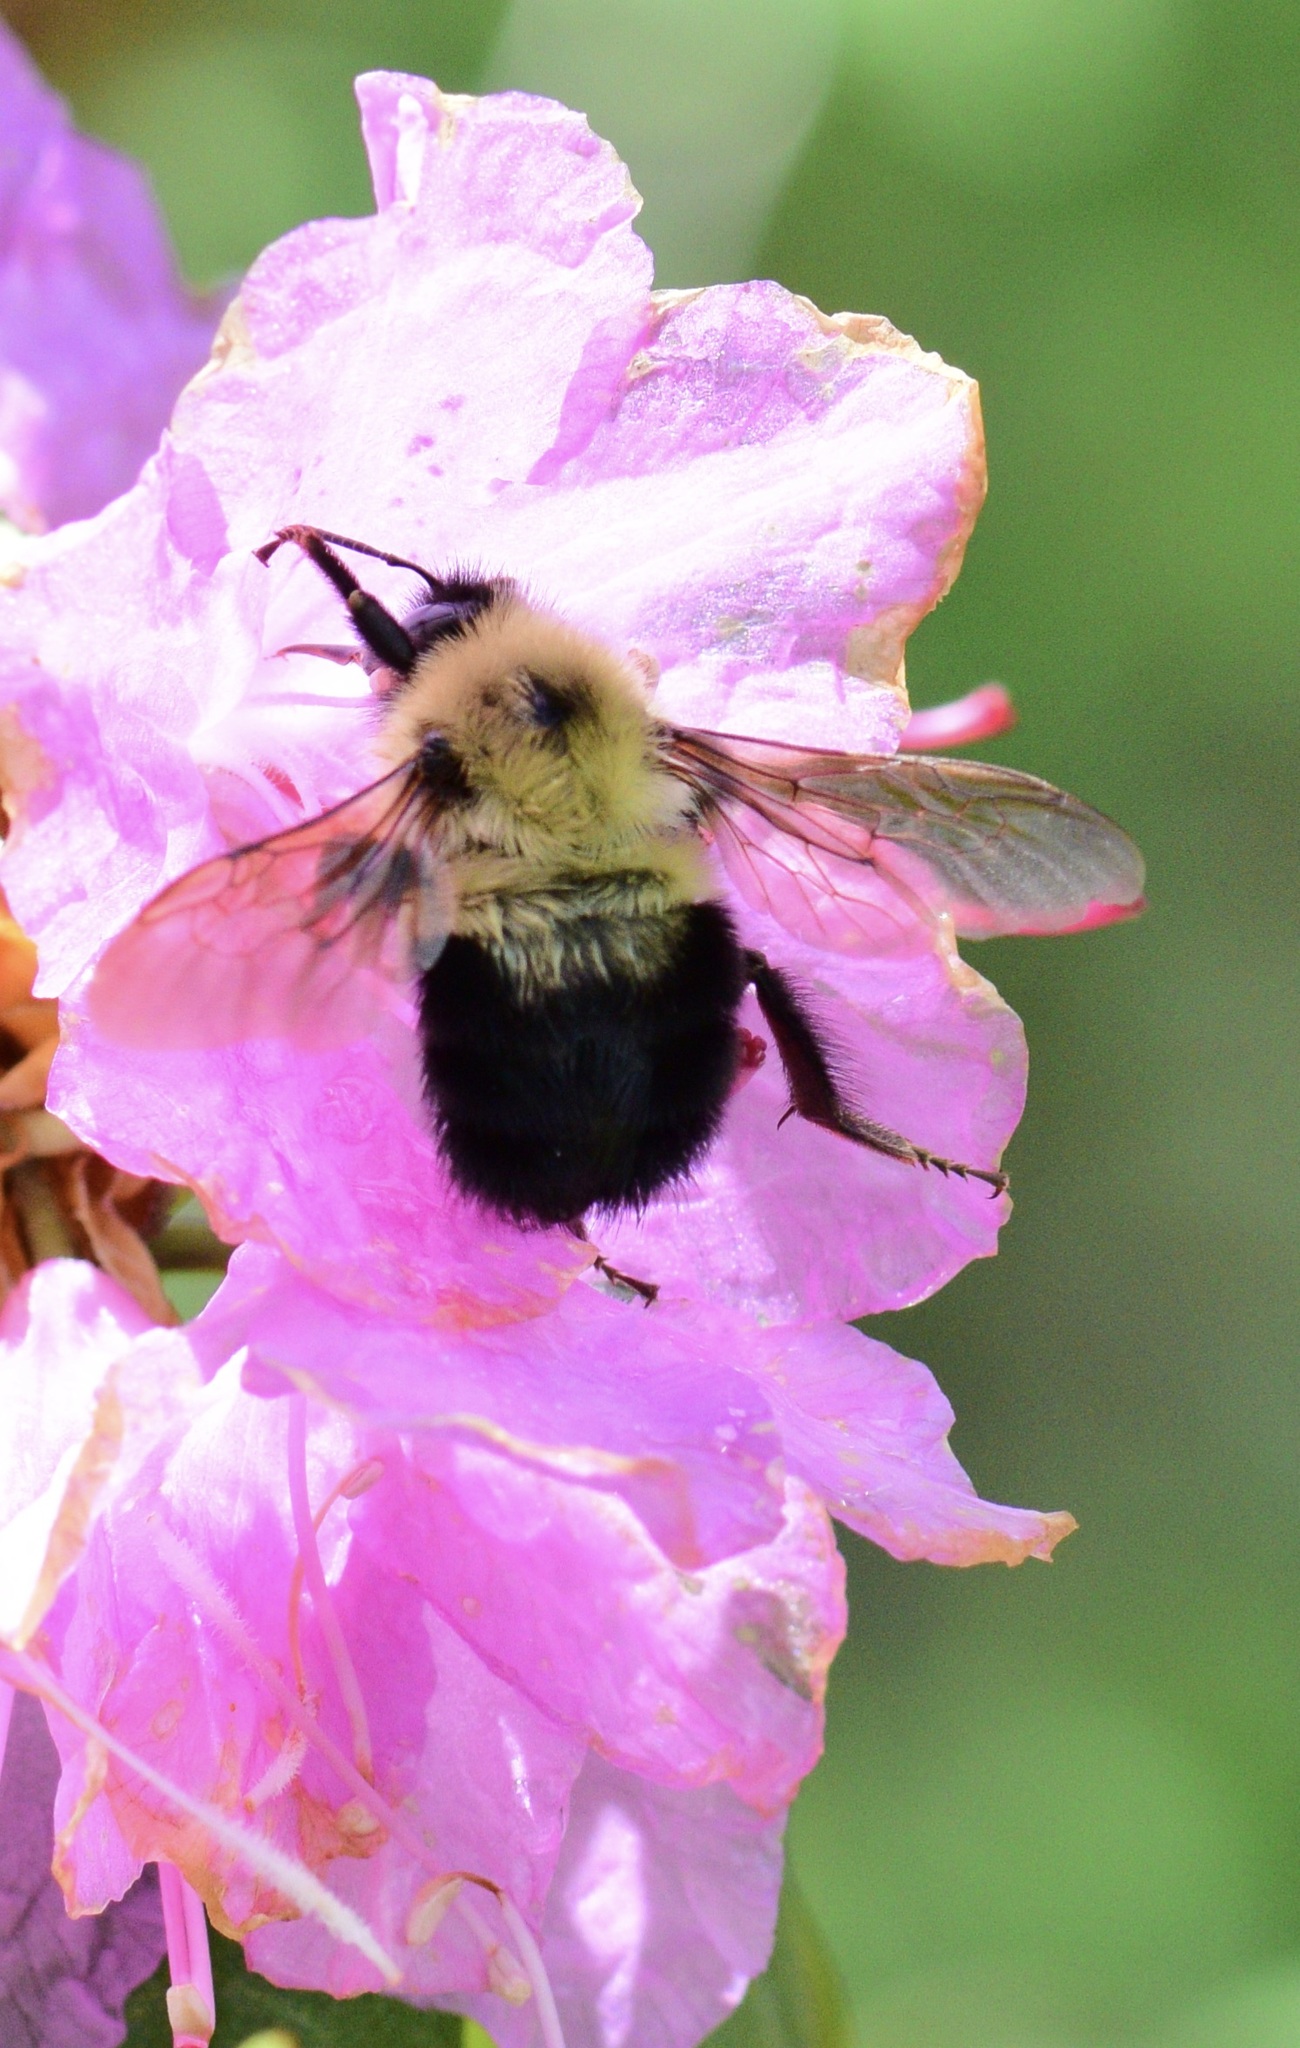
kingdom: Animalia
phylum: Arthropoda
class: Insecta
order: Hymenoptera
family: Apidae
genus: Bombus
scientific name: Bombus bimaculatus
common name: Two-spotted bumble bee
